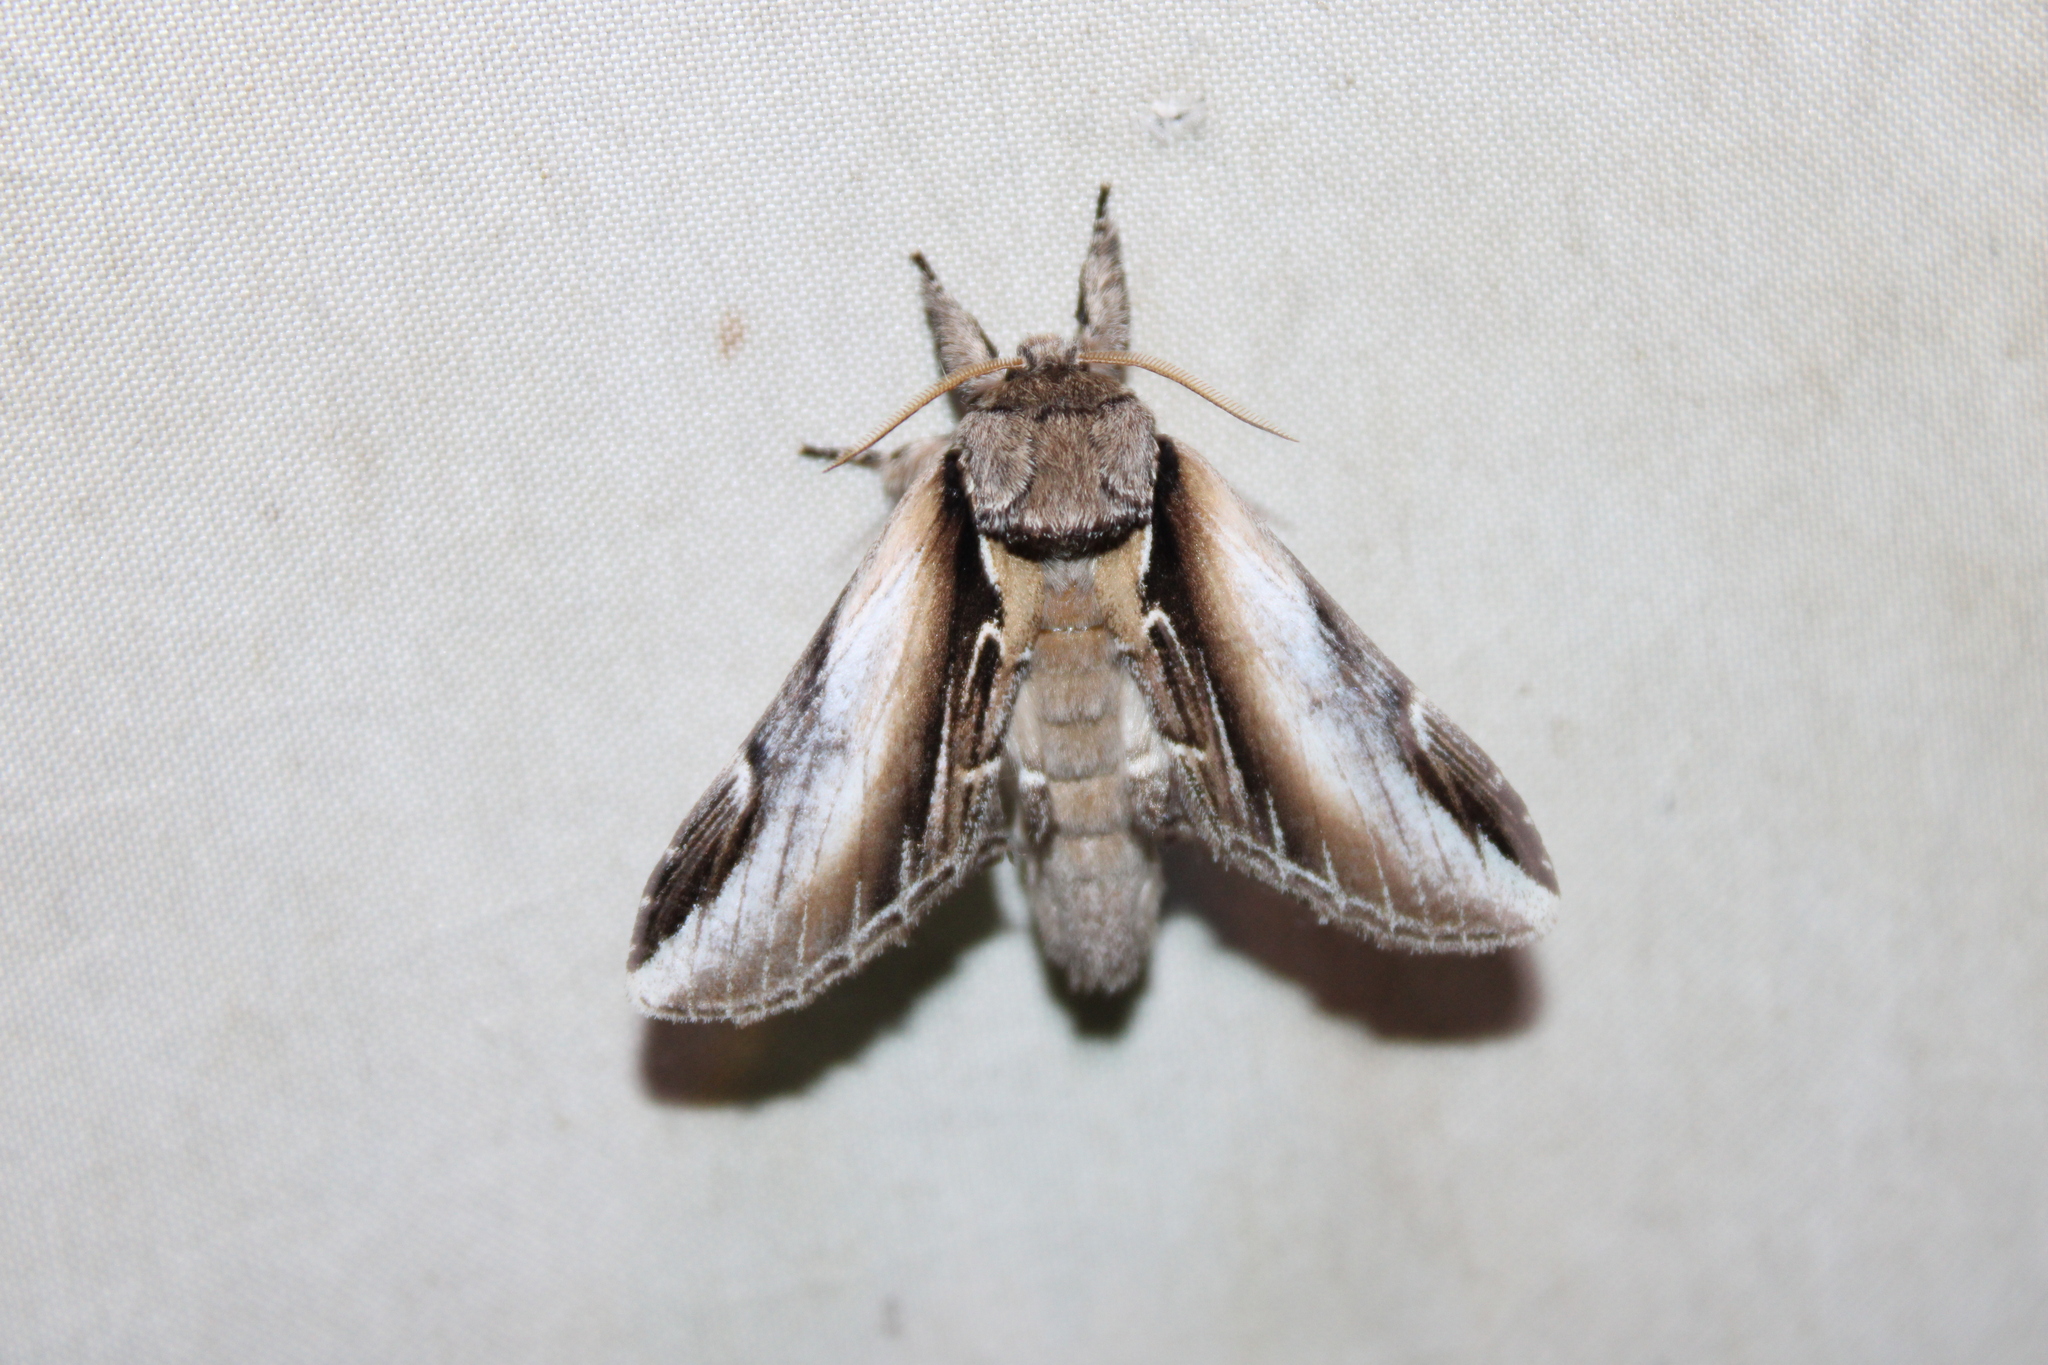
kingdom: Animalia
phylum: Arthropoda
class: Insecta
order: Lepidoptera
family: Notodontidae
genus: Pheosia
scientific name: Pheosia rimosa
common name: Black-rimmed prominent
